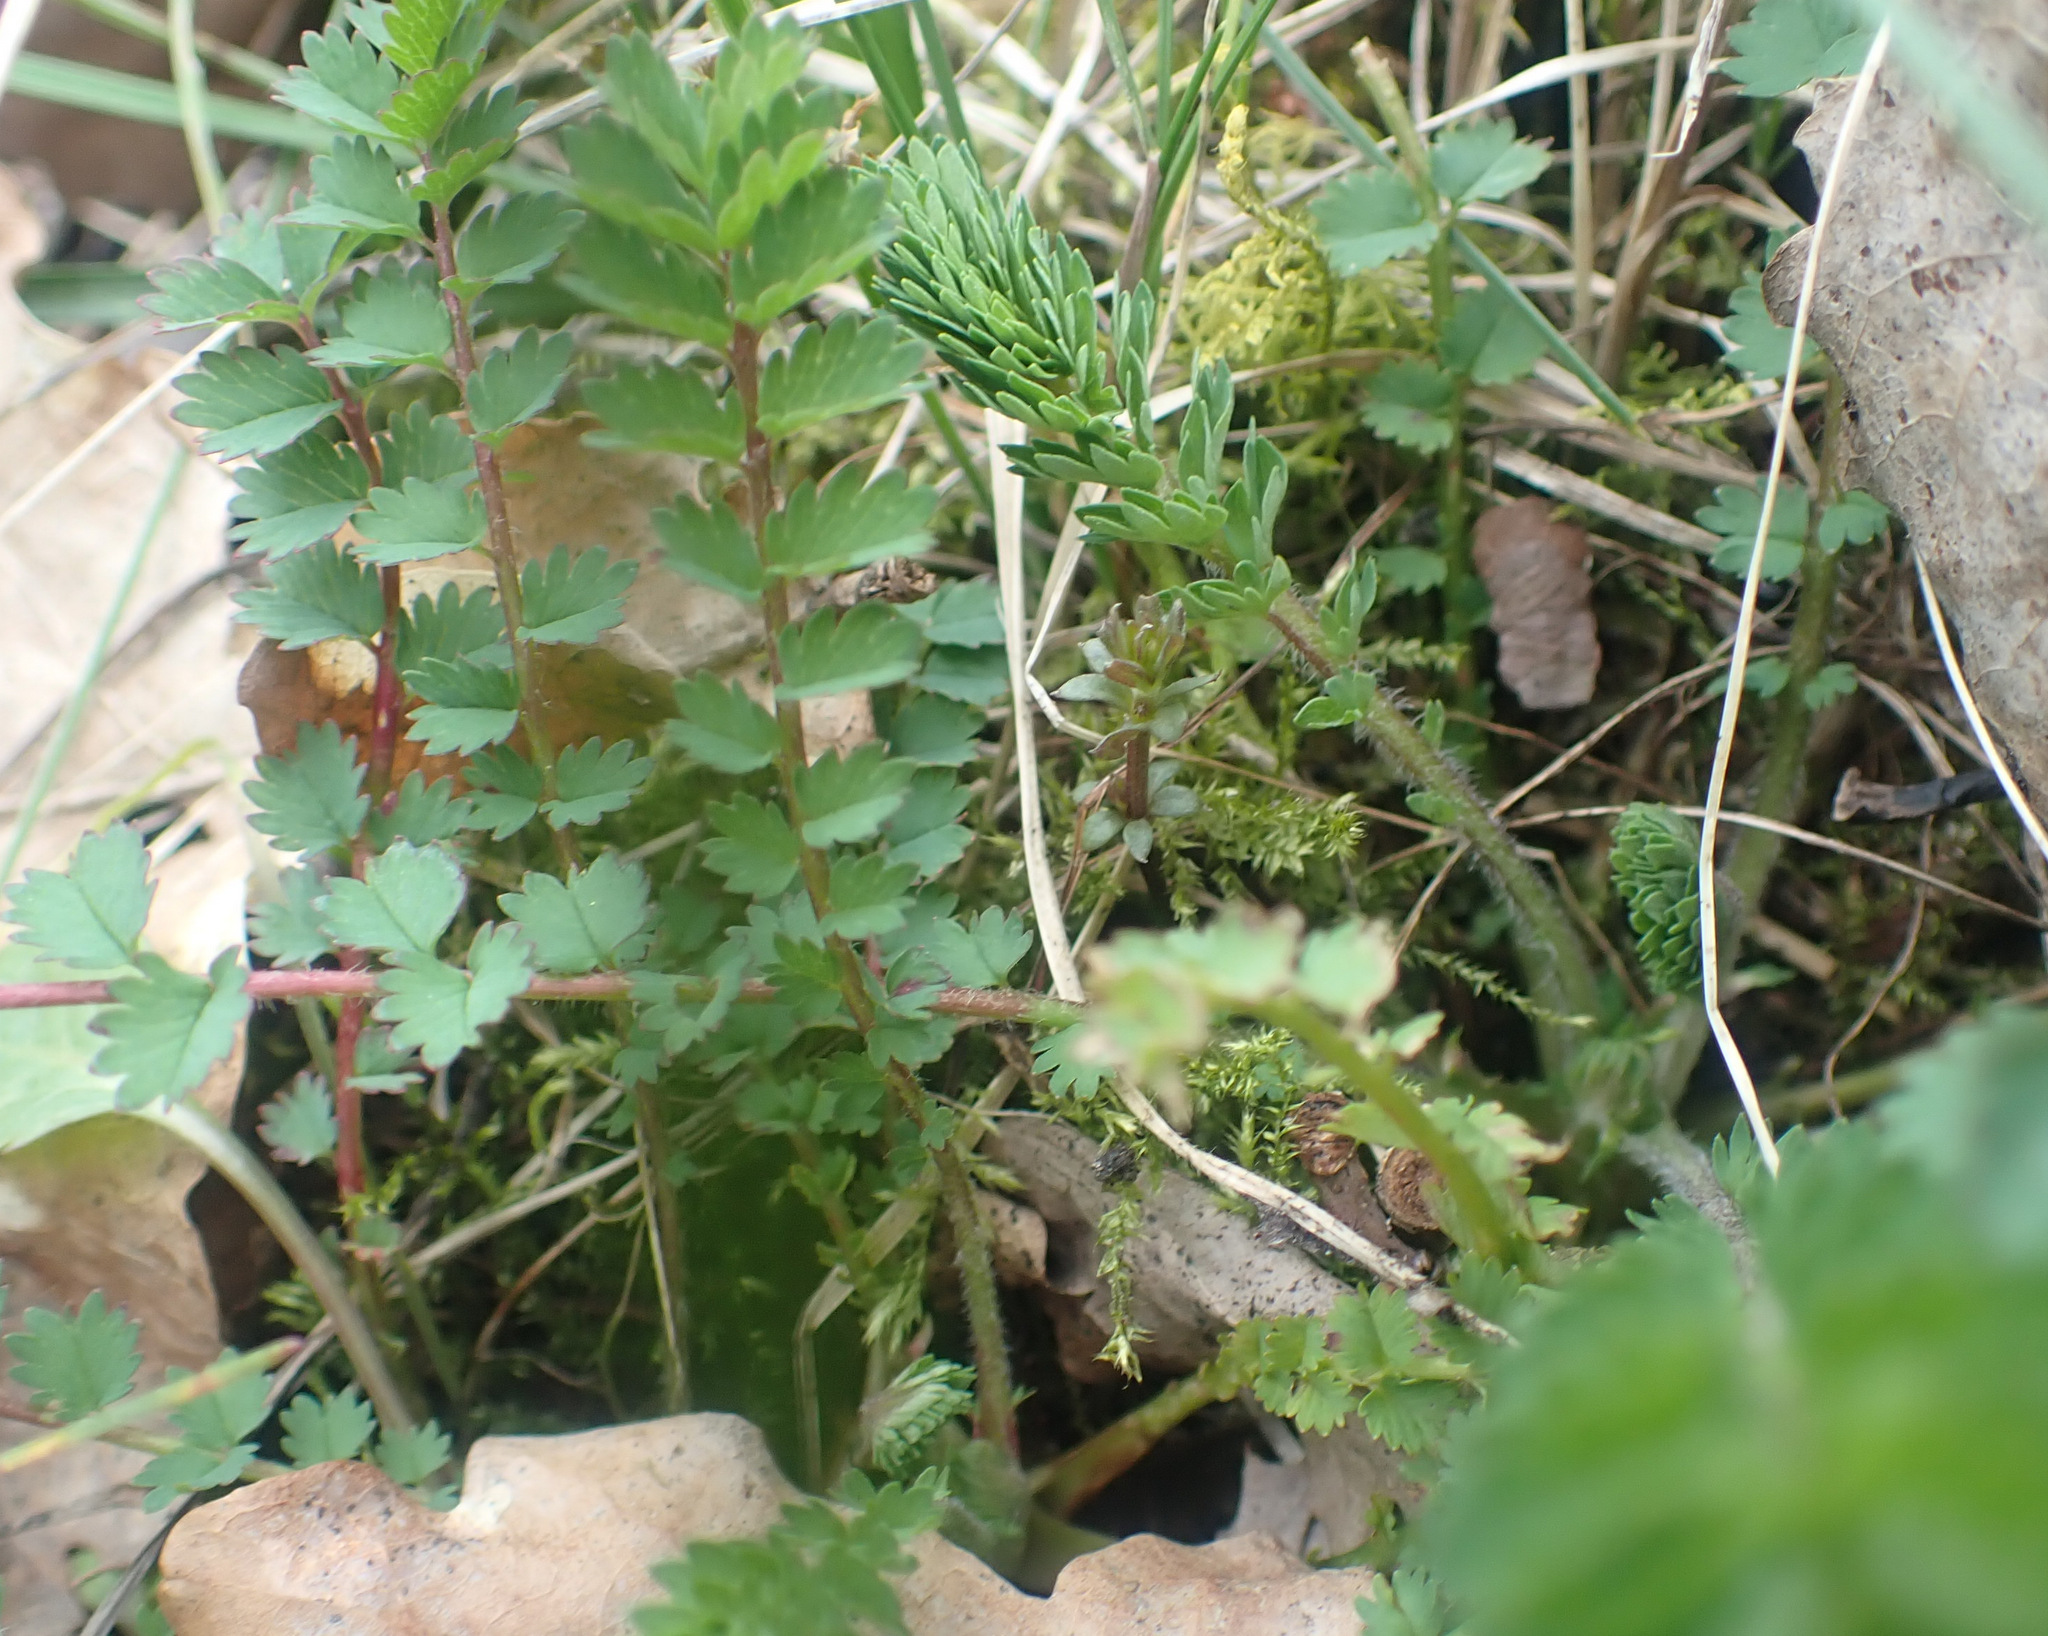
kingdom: Plantae
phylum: Tracheophyta
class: Magnoliopsida
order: Rosales
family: Rosaceae
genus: Poterium
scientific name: Poterium sanguisorba
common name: Salad burnet
